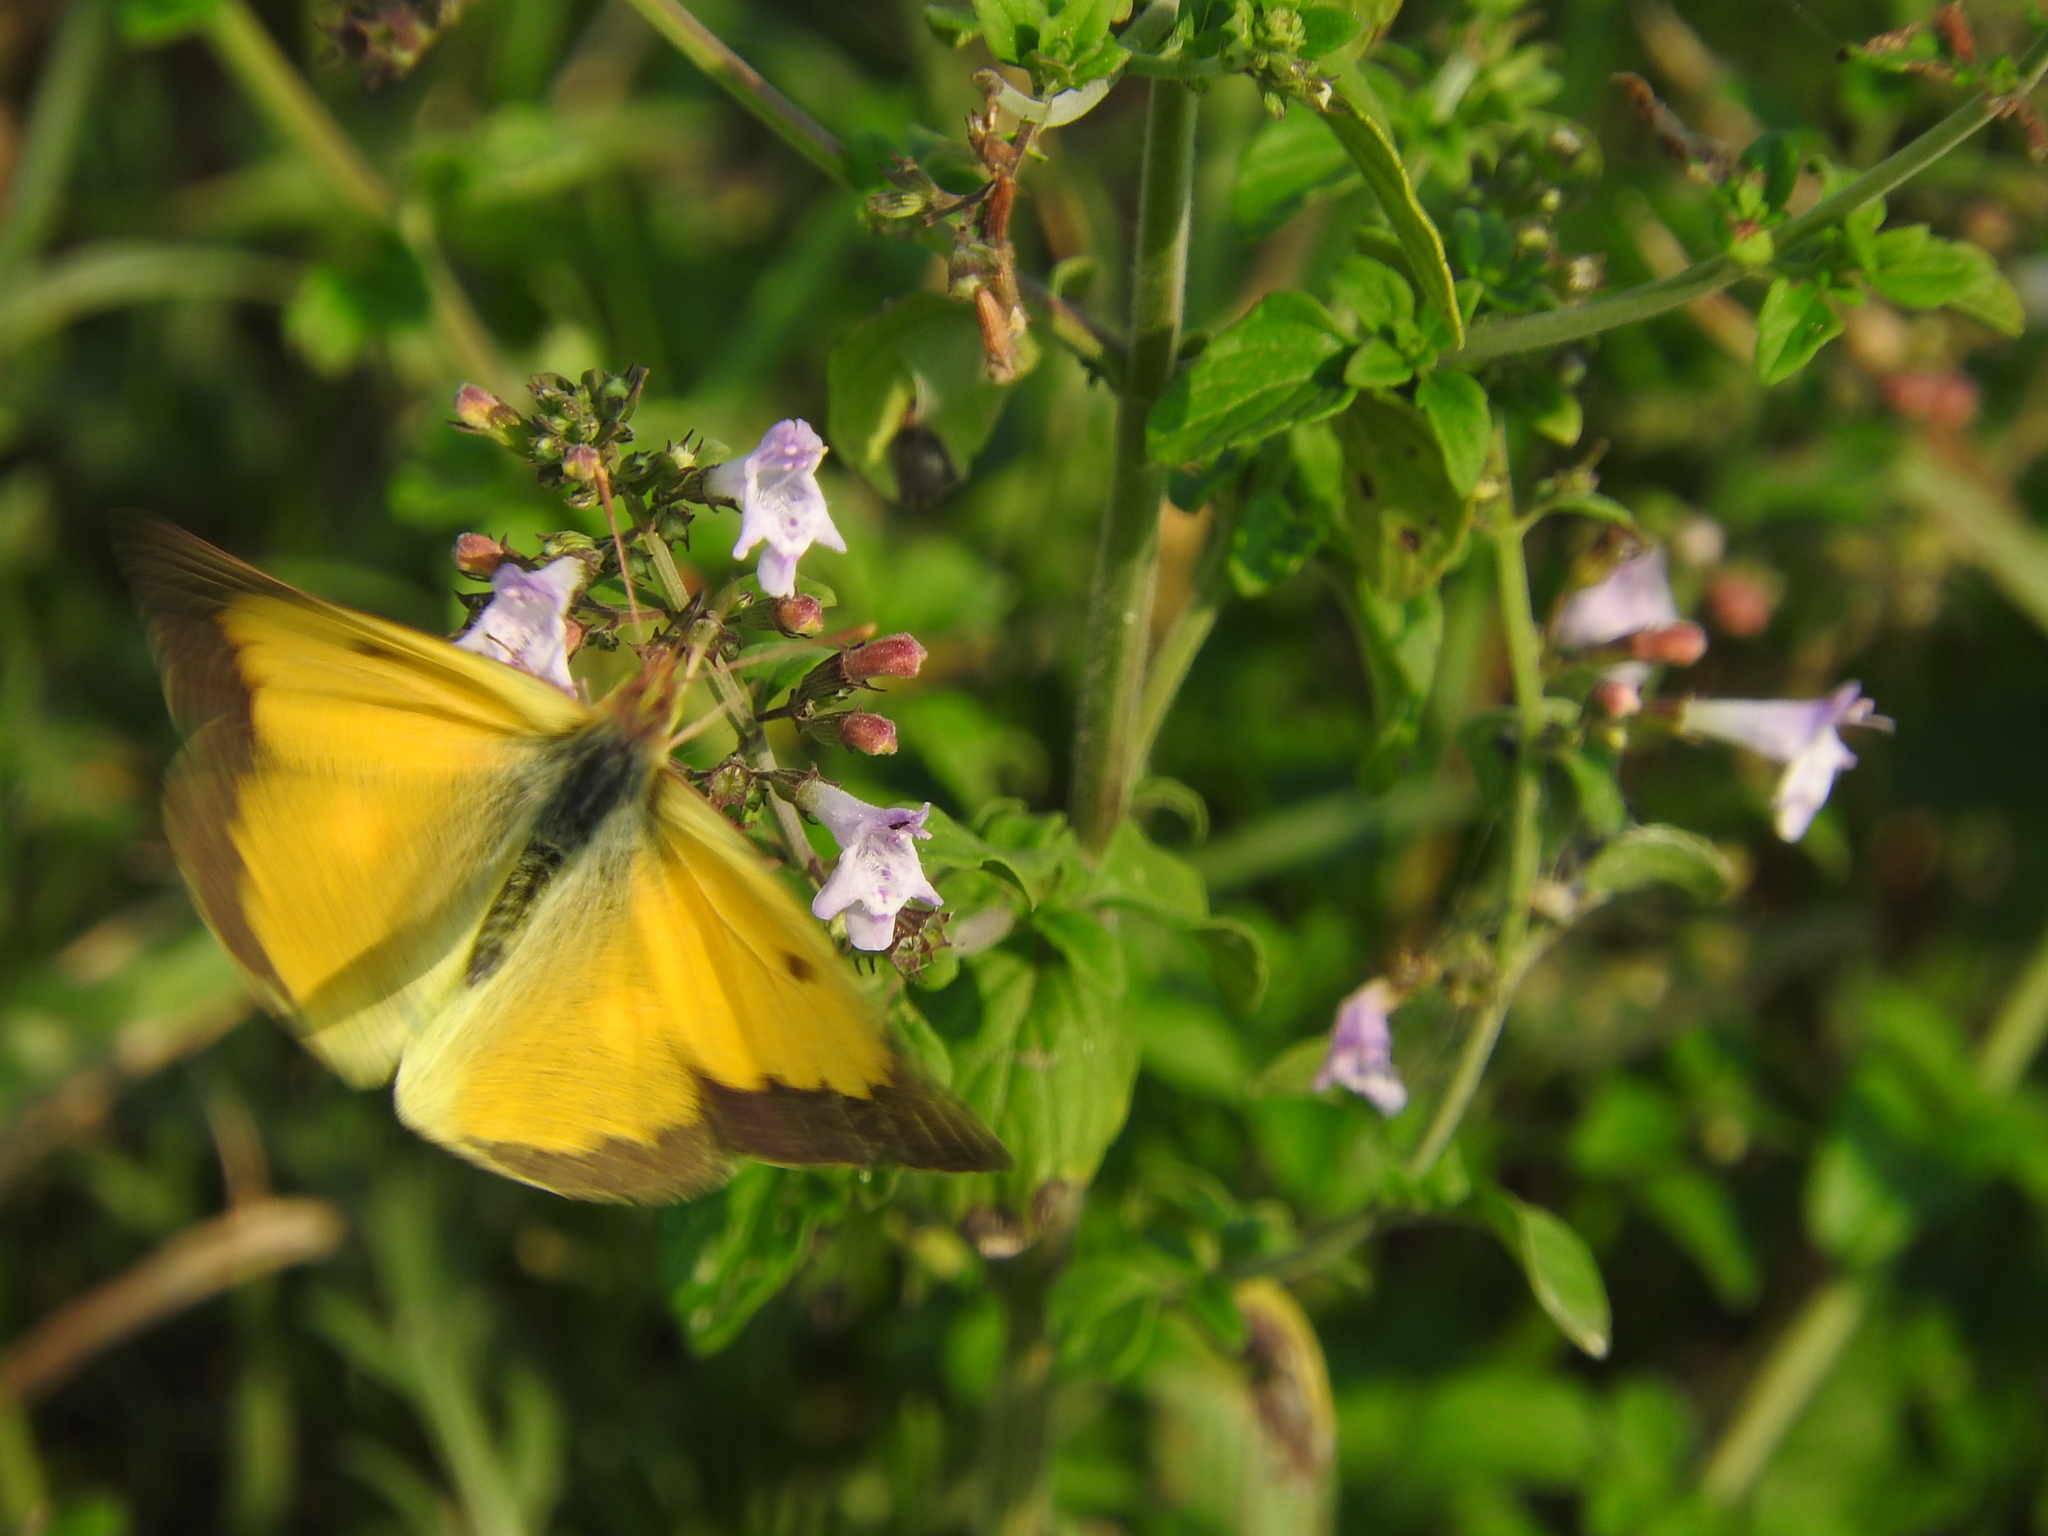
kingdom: Animalia
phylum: Arthropoda
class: Insecta
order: Lepidoptera
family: Pieridae
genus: Colias
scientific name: Colias croceus
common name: Clouded yellow
